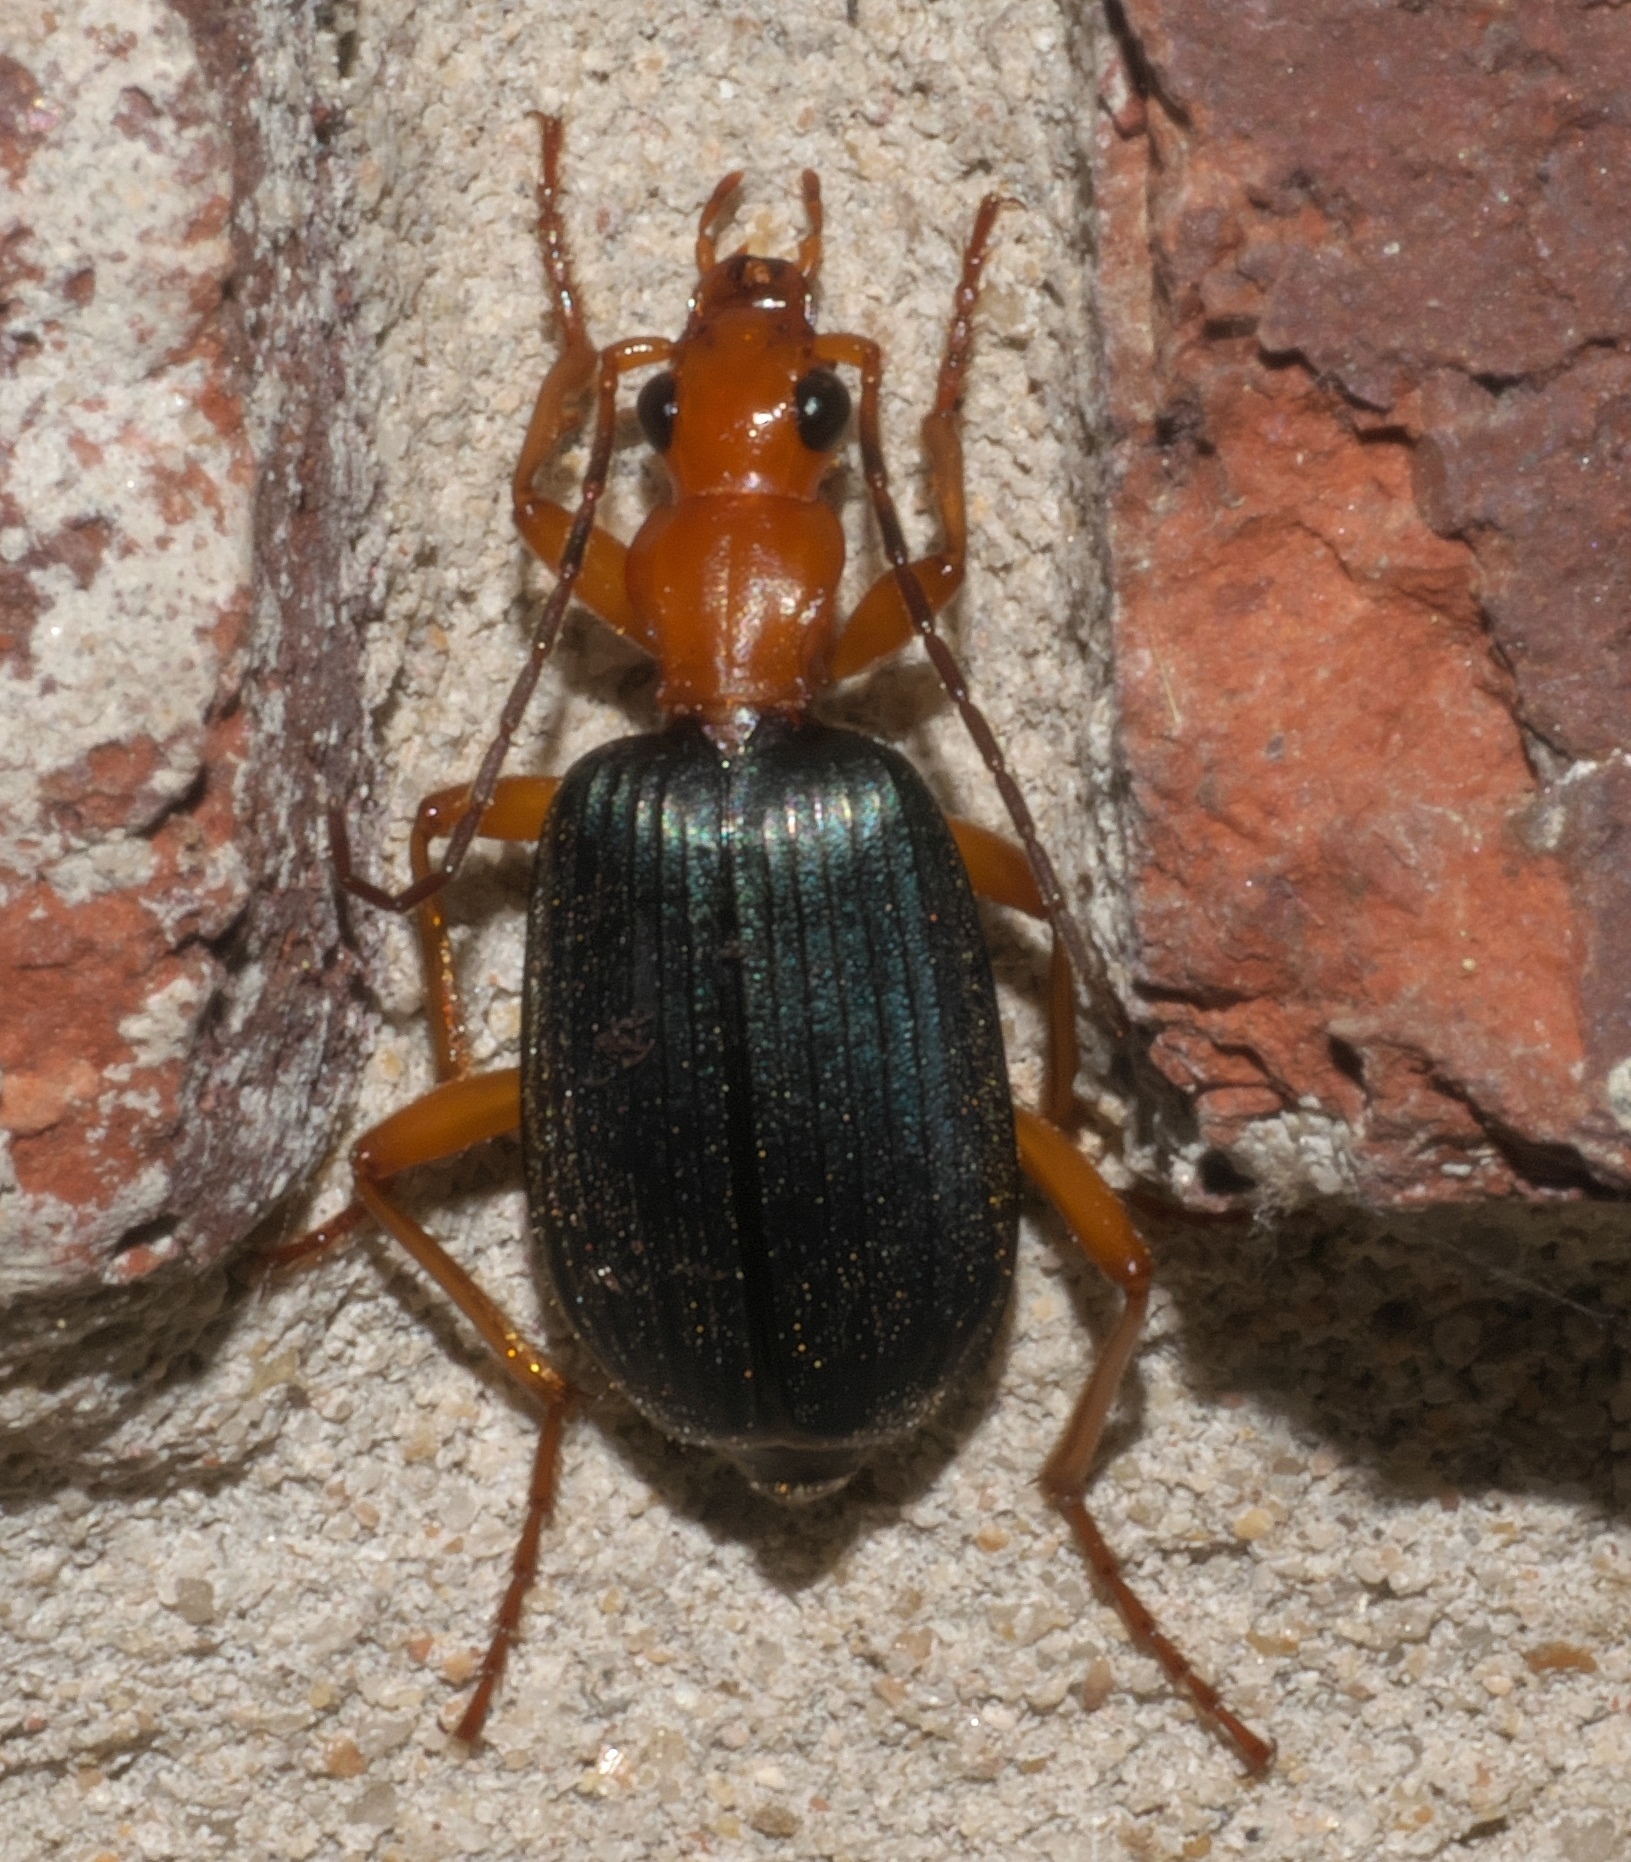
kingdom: Animalia
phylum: Arthropoda
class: Insecta
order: Coleoptera
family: Carabidae
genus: Brachinus
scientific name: Brachinus
